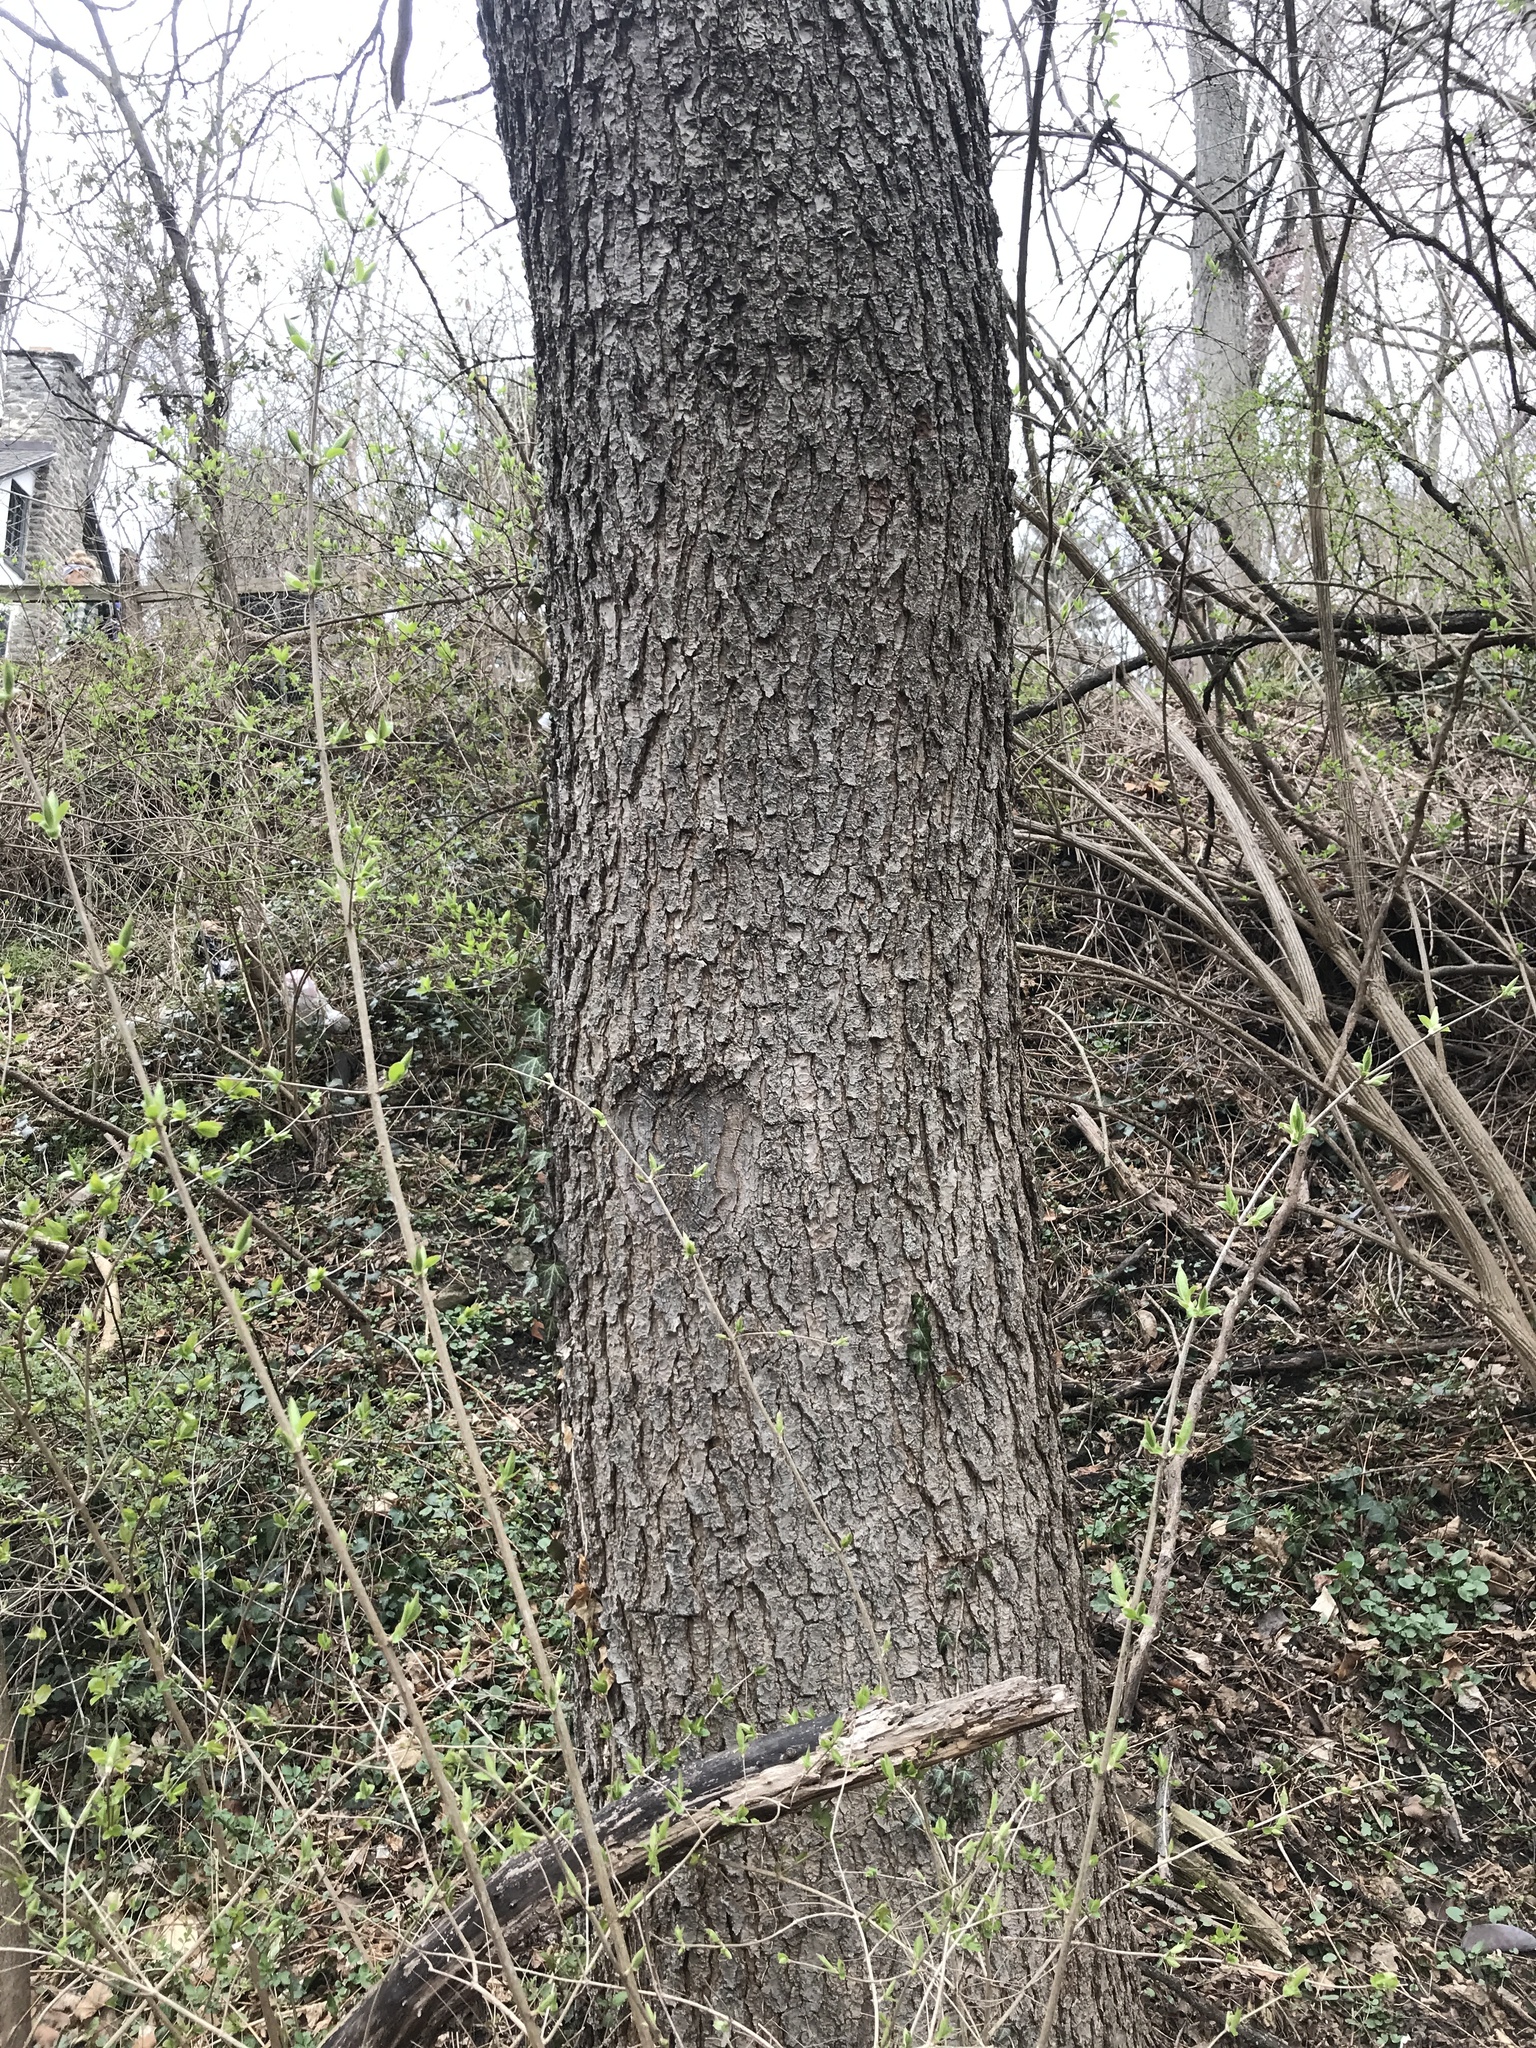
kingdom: Plantae
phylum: Tracheophyta
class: Magnoliopsida
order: Fabales
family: Fabaceae
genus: Gymnocladus
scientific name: Gymnocladus dioicus
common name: Kentucky coffee-tree
